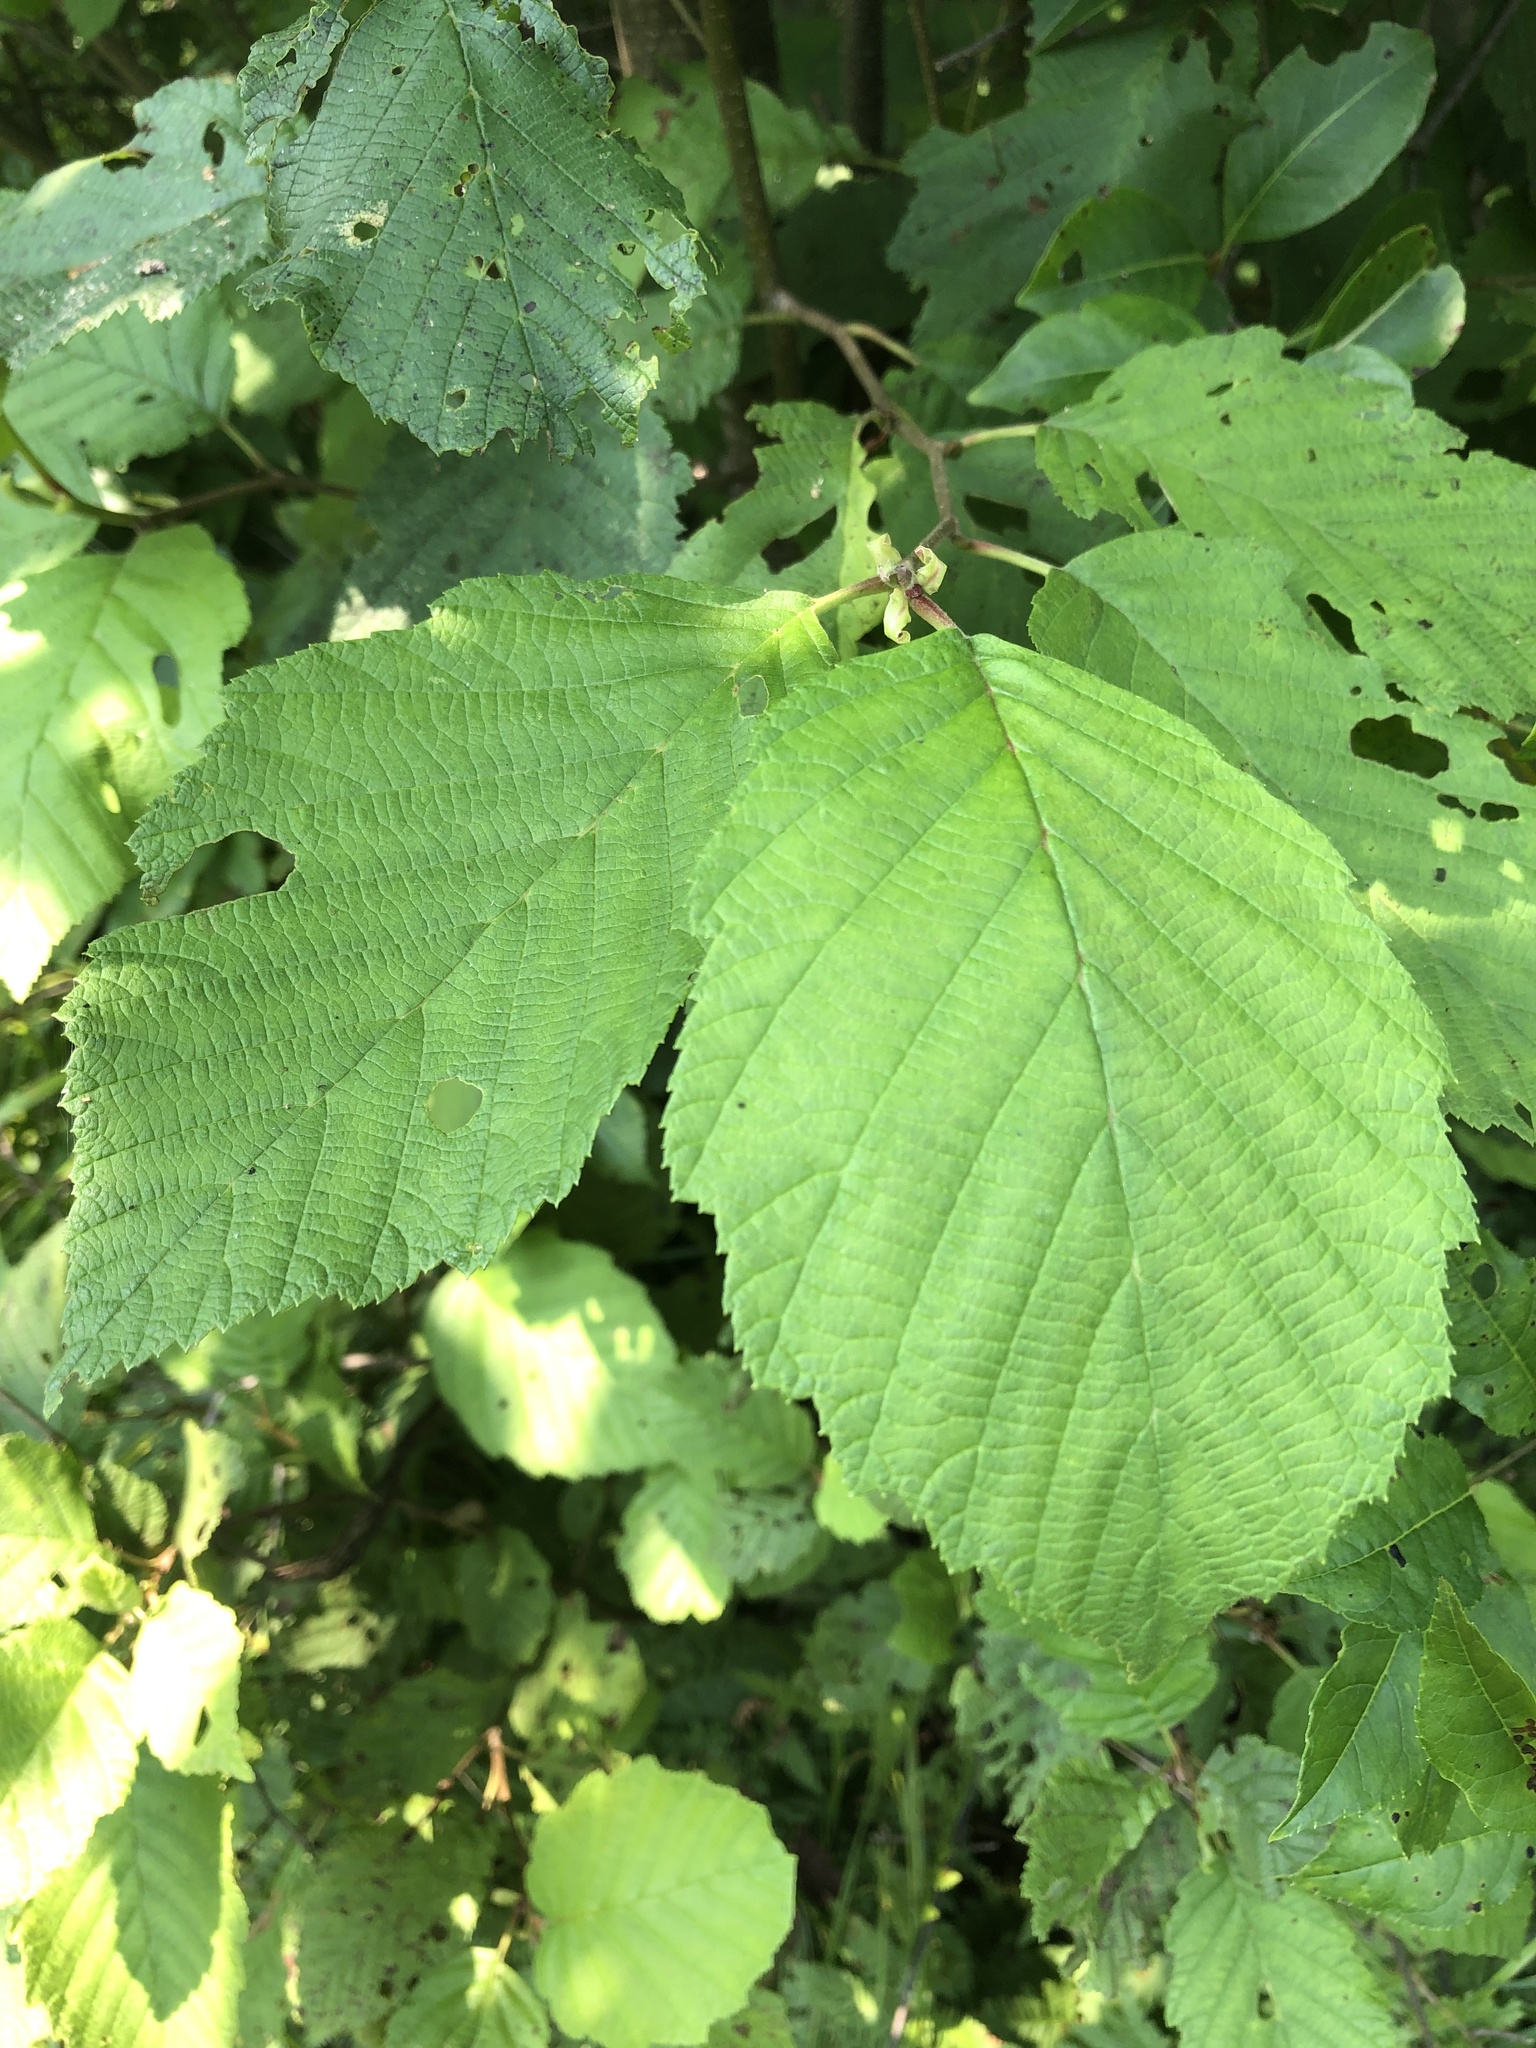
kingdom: Plantae
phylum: Tracheophyta
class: Magnoliopsida
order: Fagales
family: Betulaceae
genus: Alnus
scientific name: Alnus incana
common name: Grey alder
